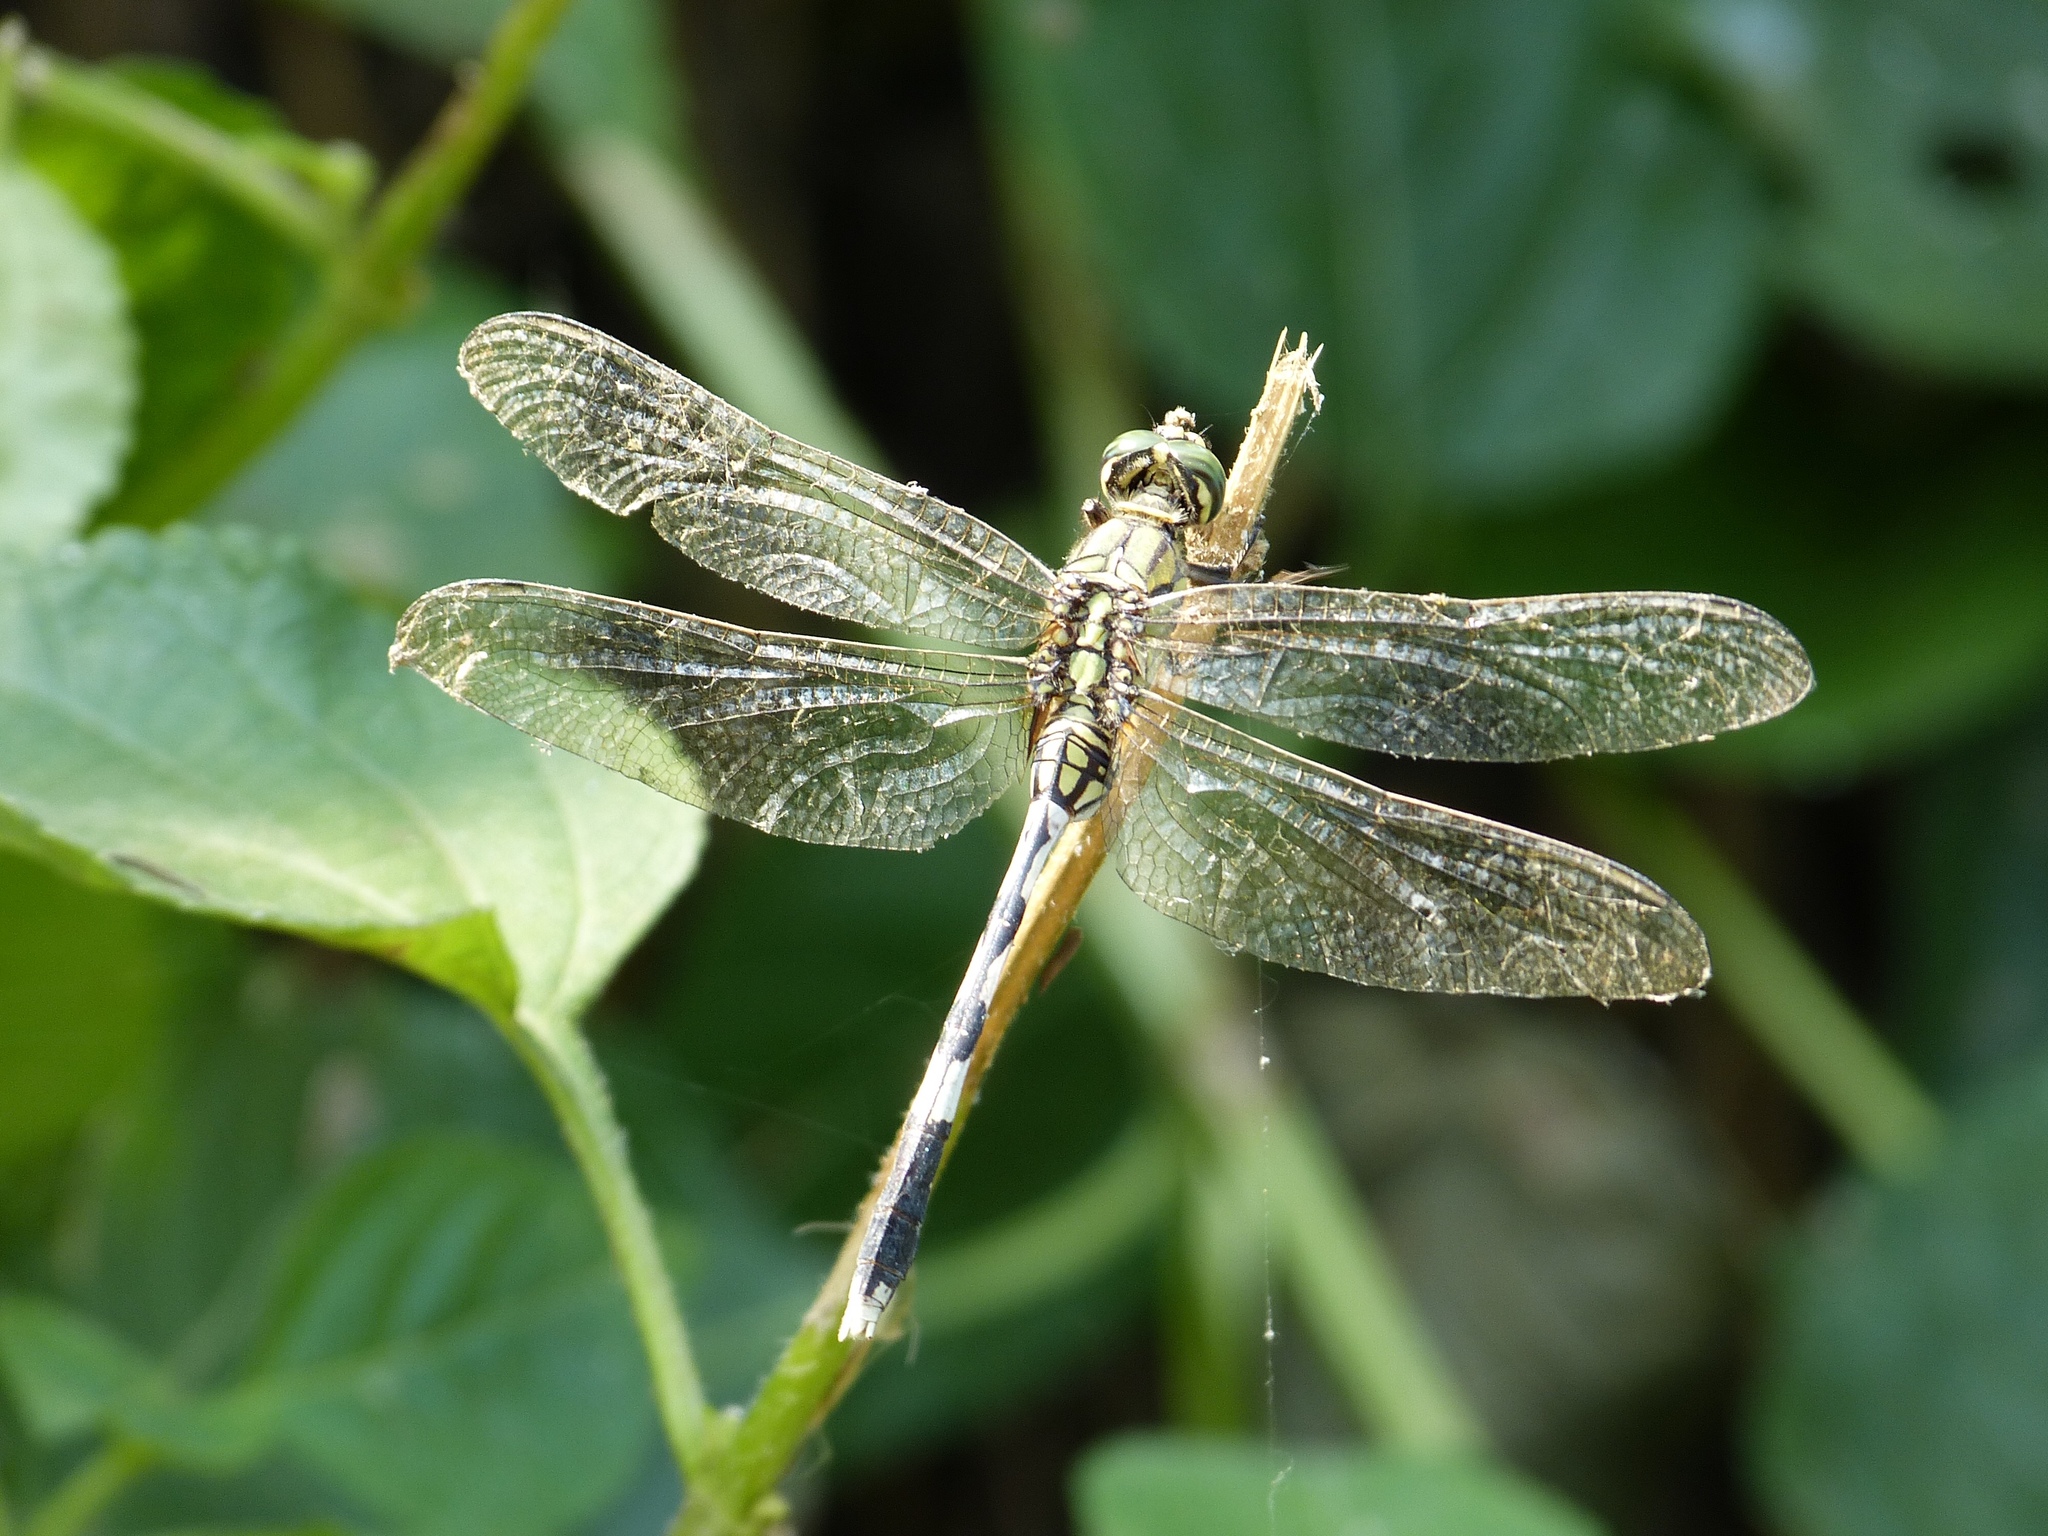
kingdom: Animalia
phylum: Arthropoda
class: Insecta
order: Odonata
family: Libellulidae
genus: Orthetrum
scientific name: Orthetrum sabina
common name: Slender skimmer
